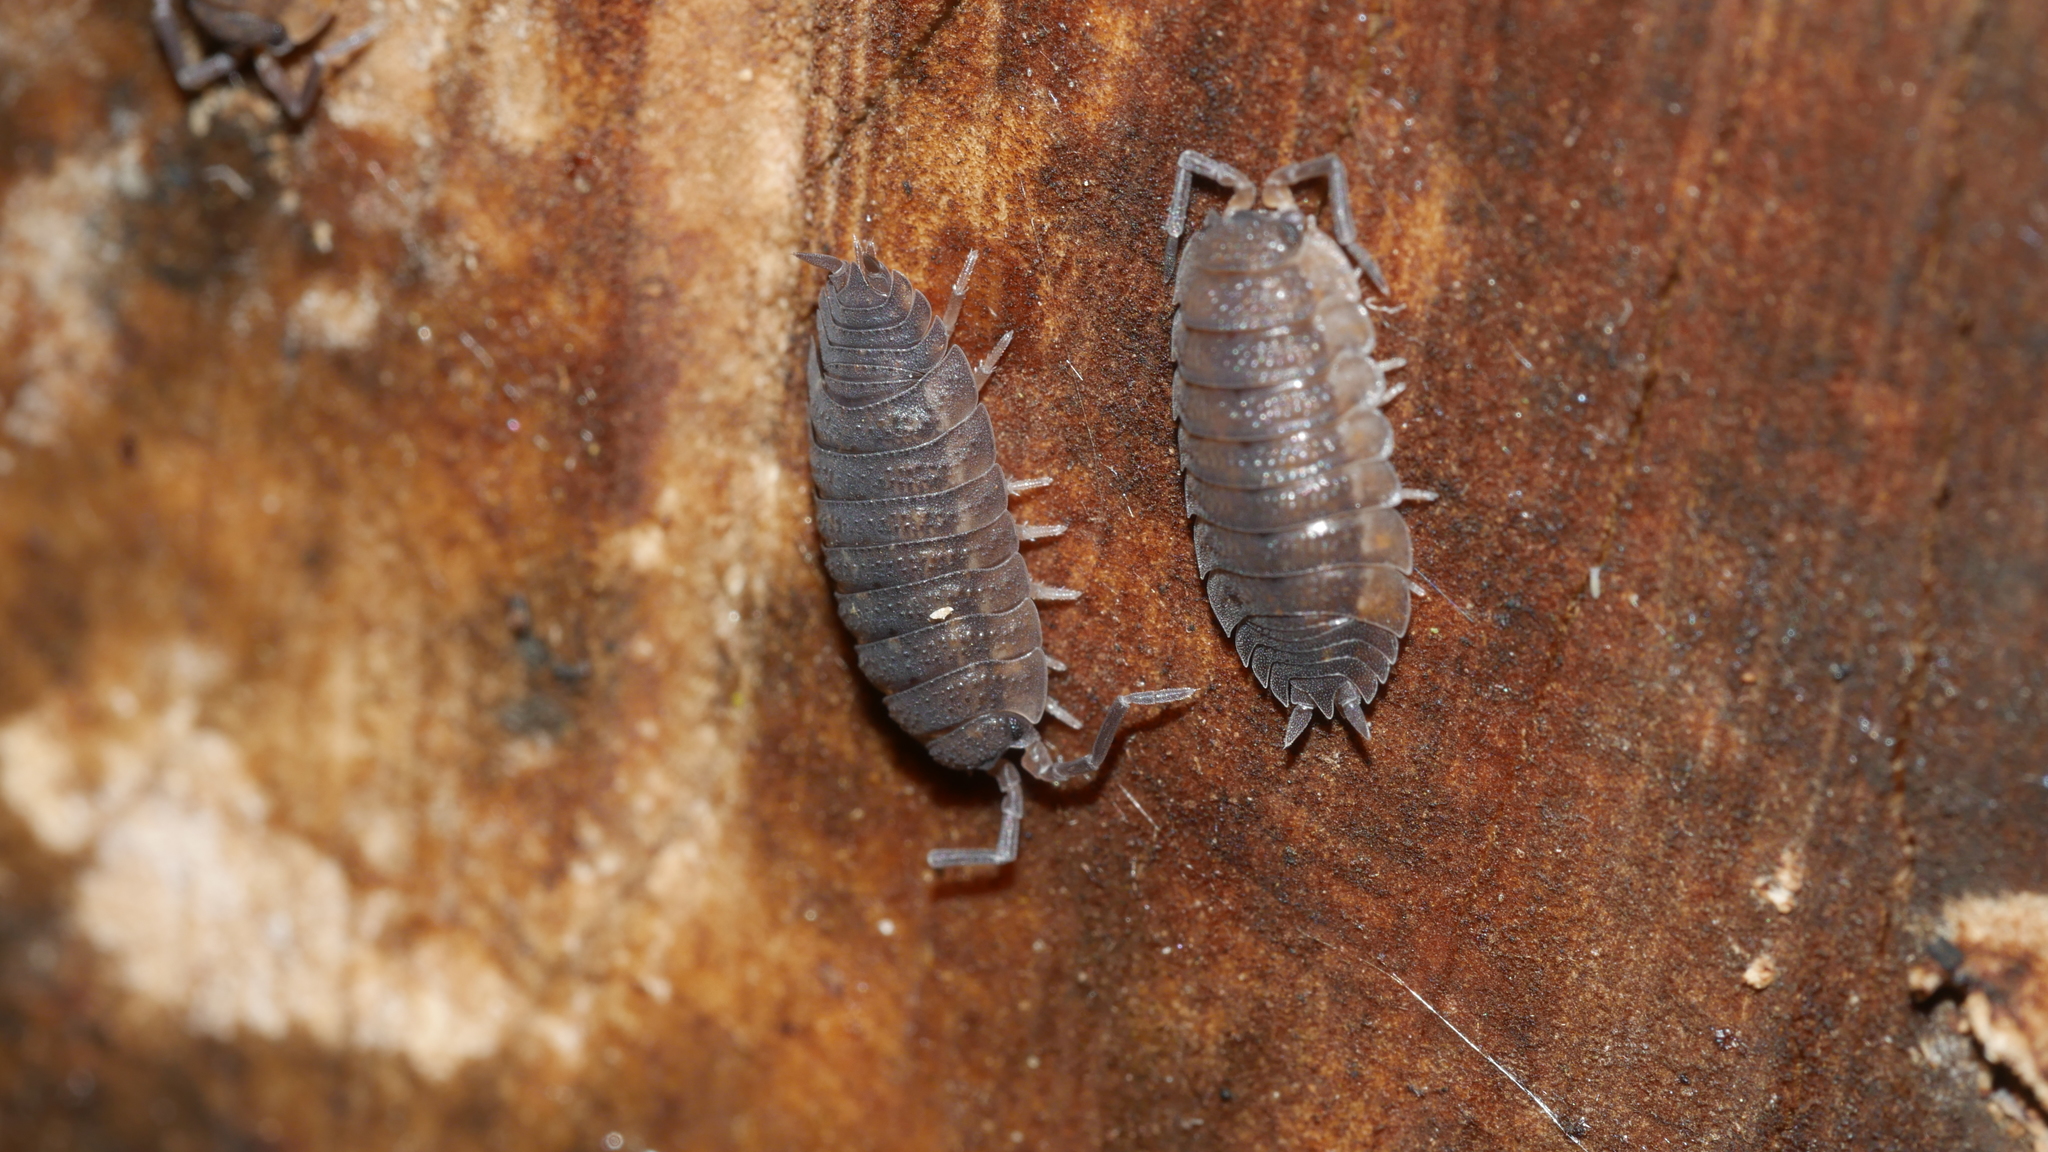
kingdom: Animalia
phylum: Arthropoda
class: Malacostraca
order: Isopoda
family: Porcellionidae
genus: Porcellio
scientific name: Porcellio scaber
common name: Common rough woodlouse
